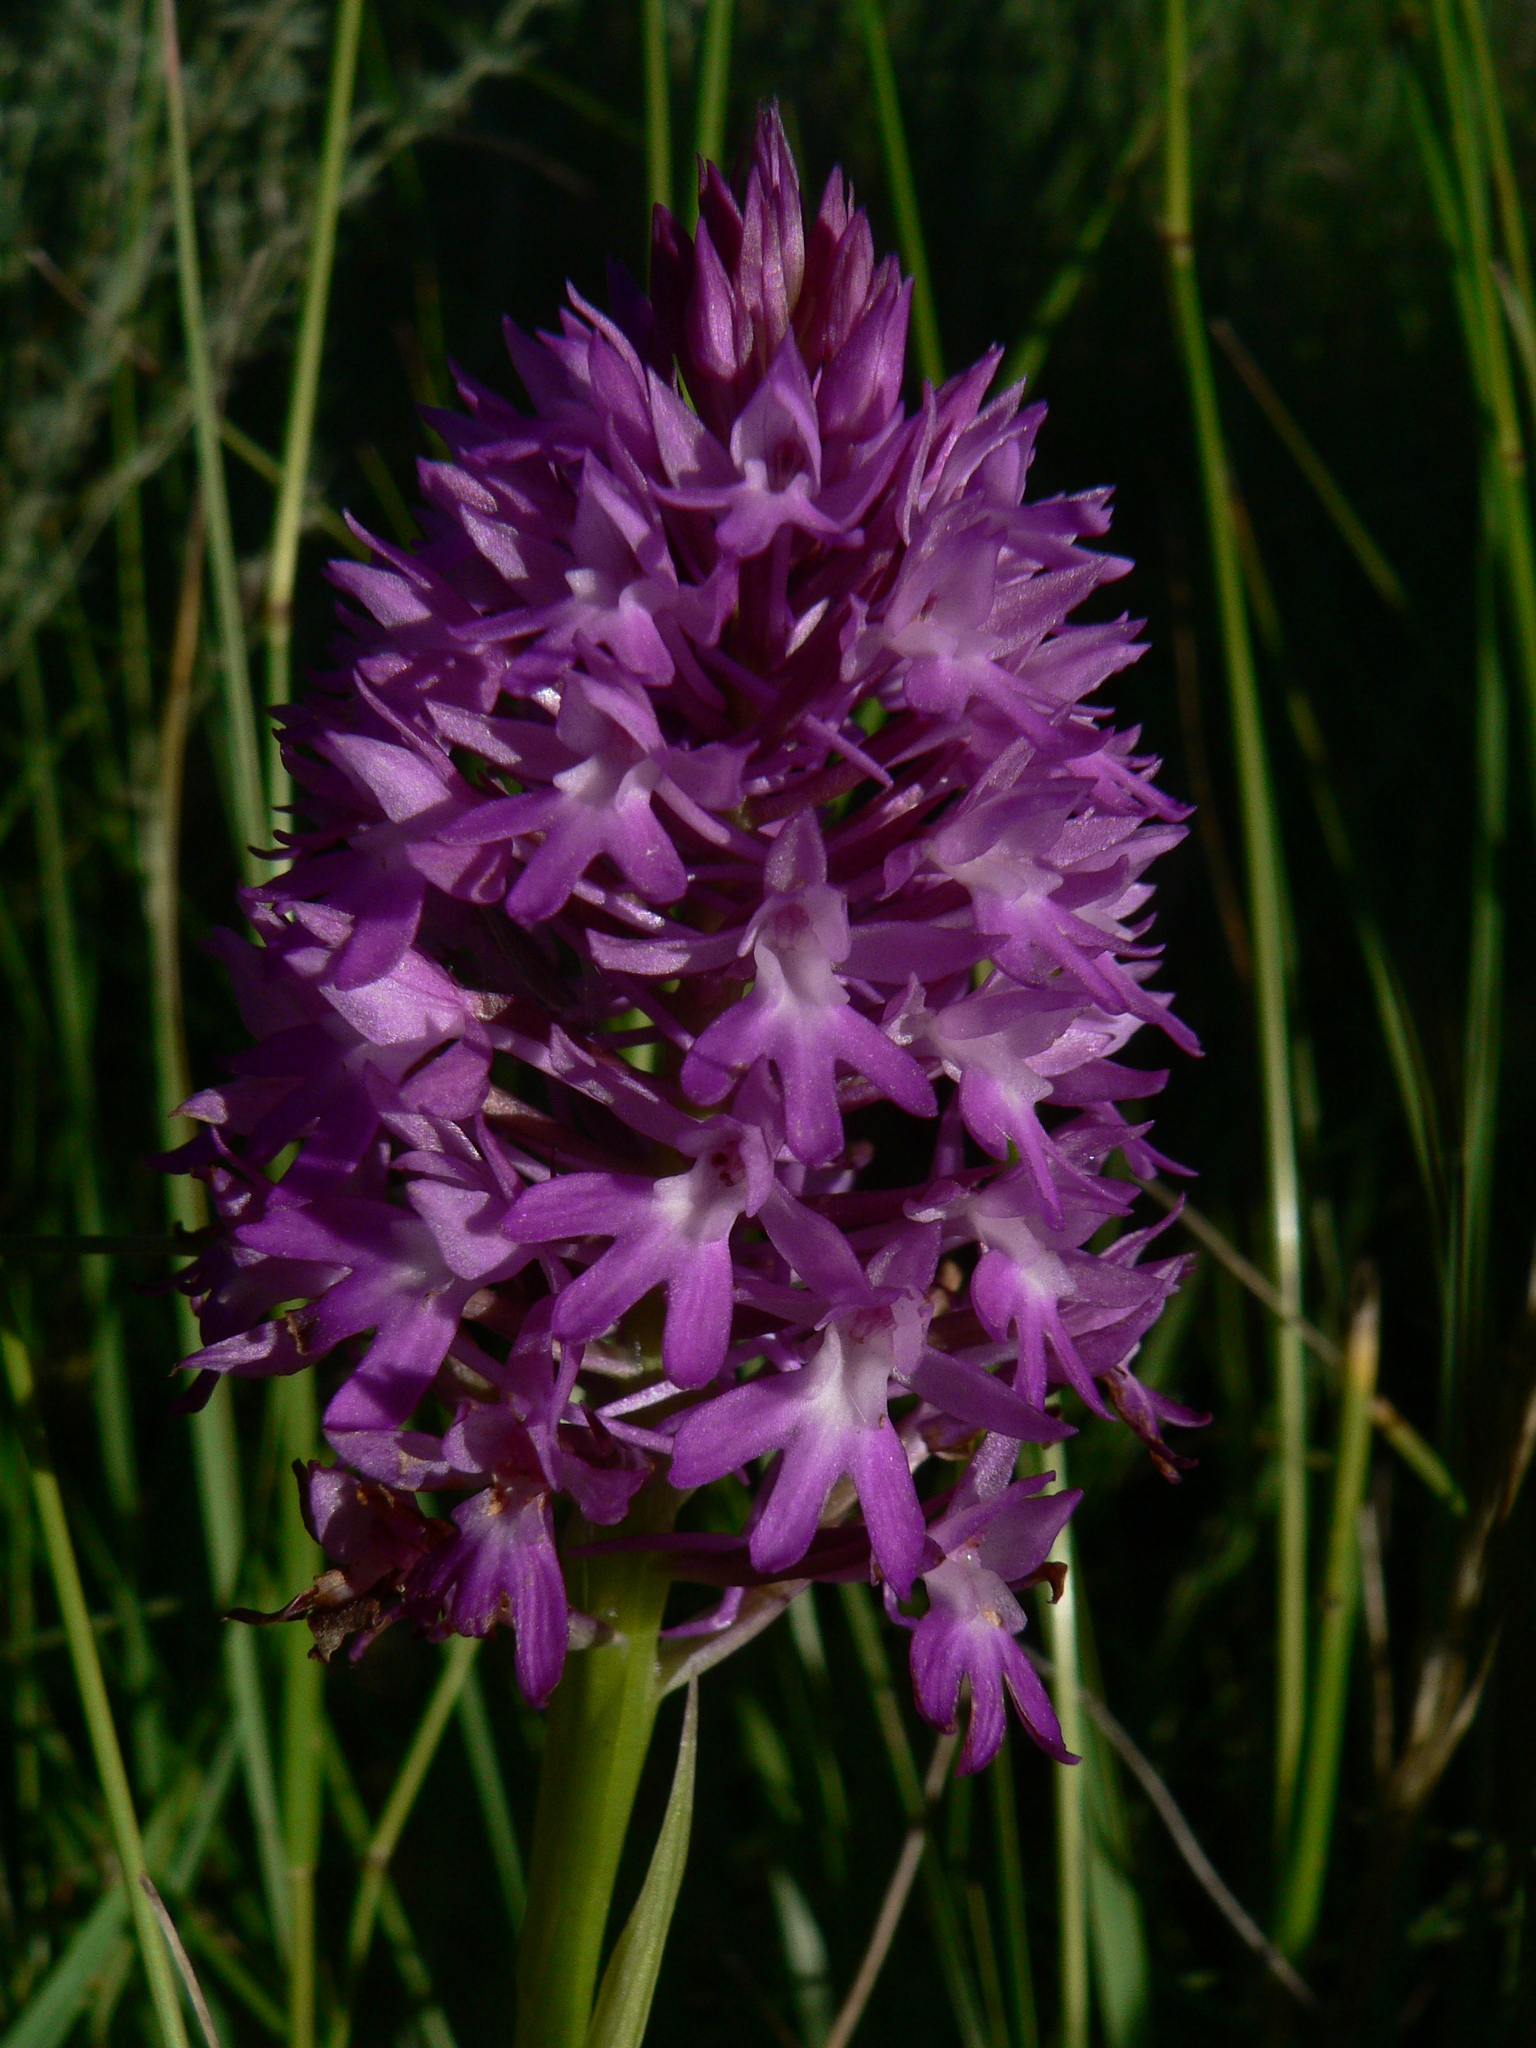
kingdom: Plantae
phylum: Tracheophyta
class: Liliopsida
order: Asparagales
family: Orchidaceae
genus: Anacamptis
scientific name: Anacamptis pyramidalis
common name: Pyramidal orchid
